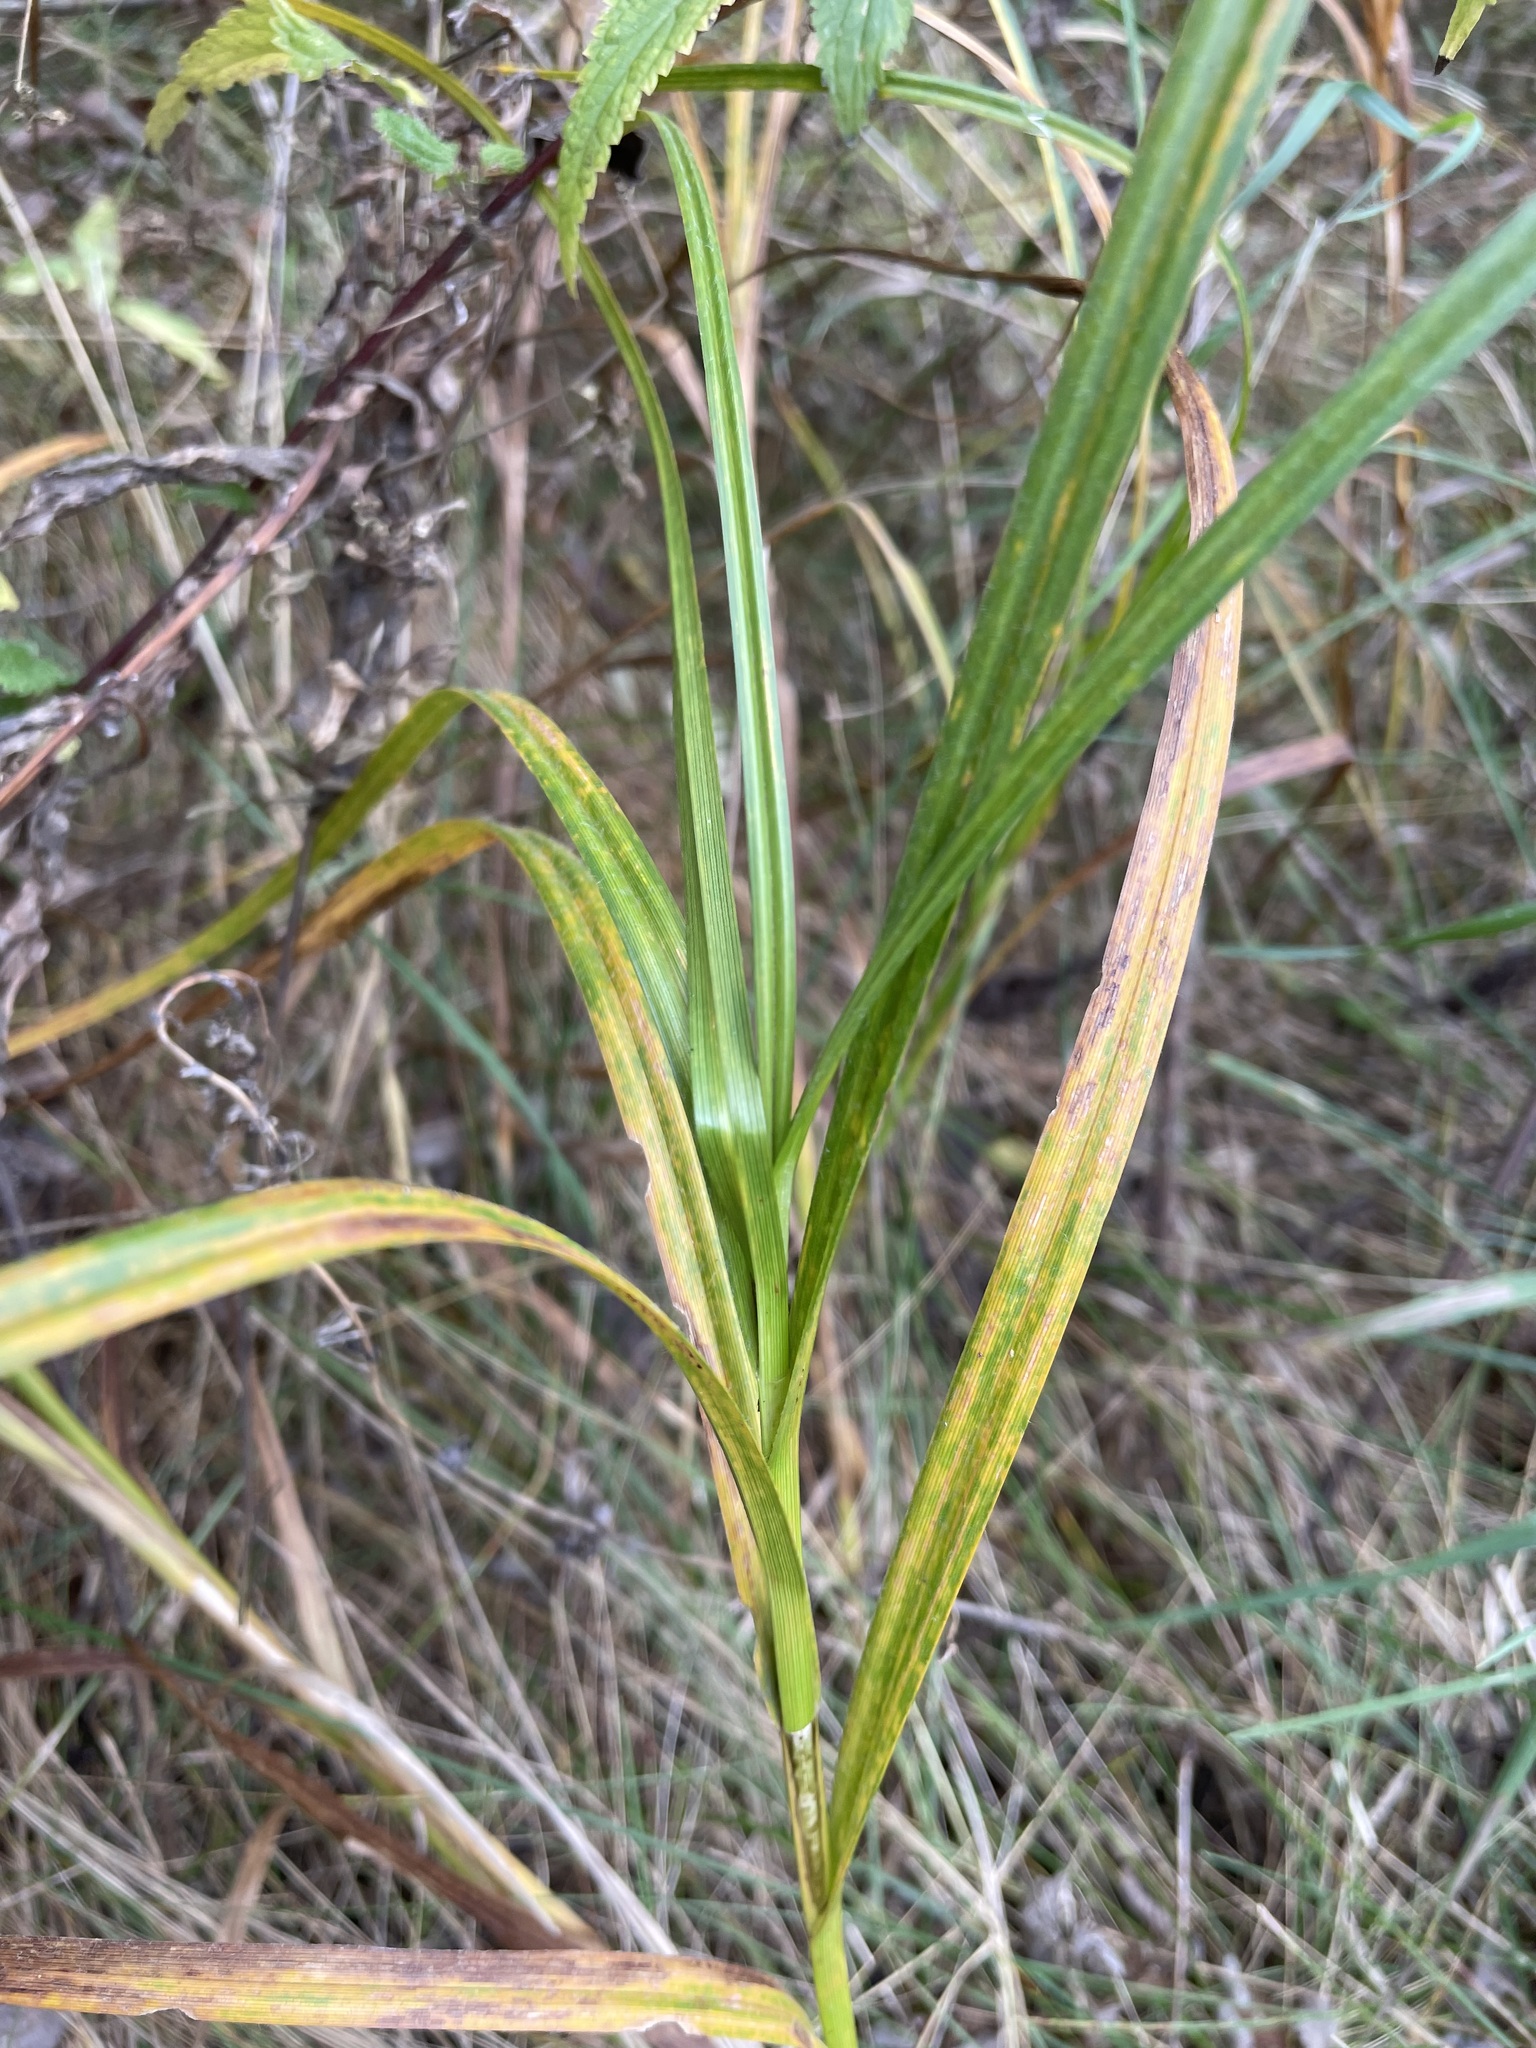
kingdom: Plantae
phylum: Tracheophyta
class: Liliopsida
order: Poales
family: Cyperaceae
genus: Carex
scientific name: Carex atherodes
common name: Wheat sedge
